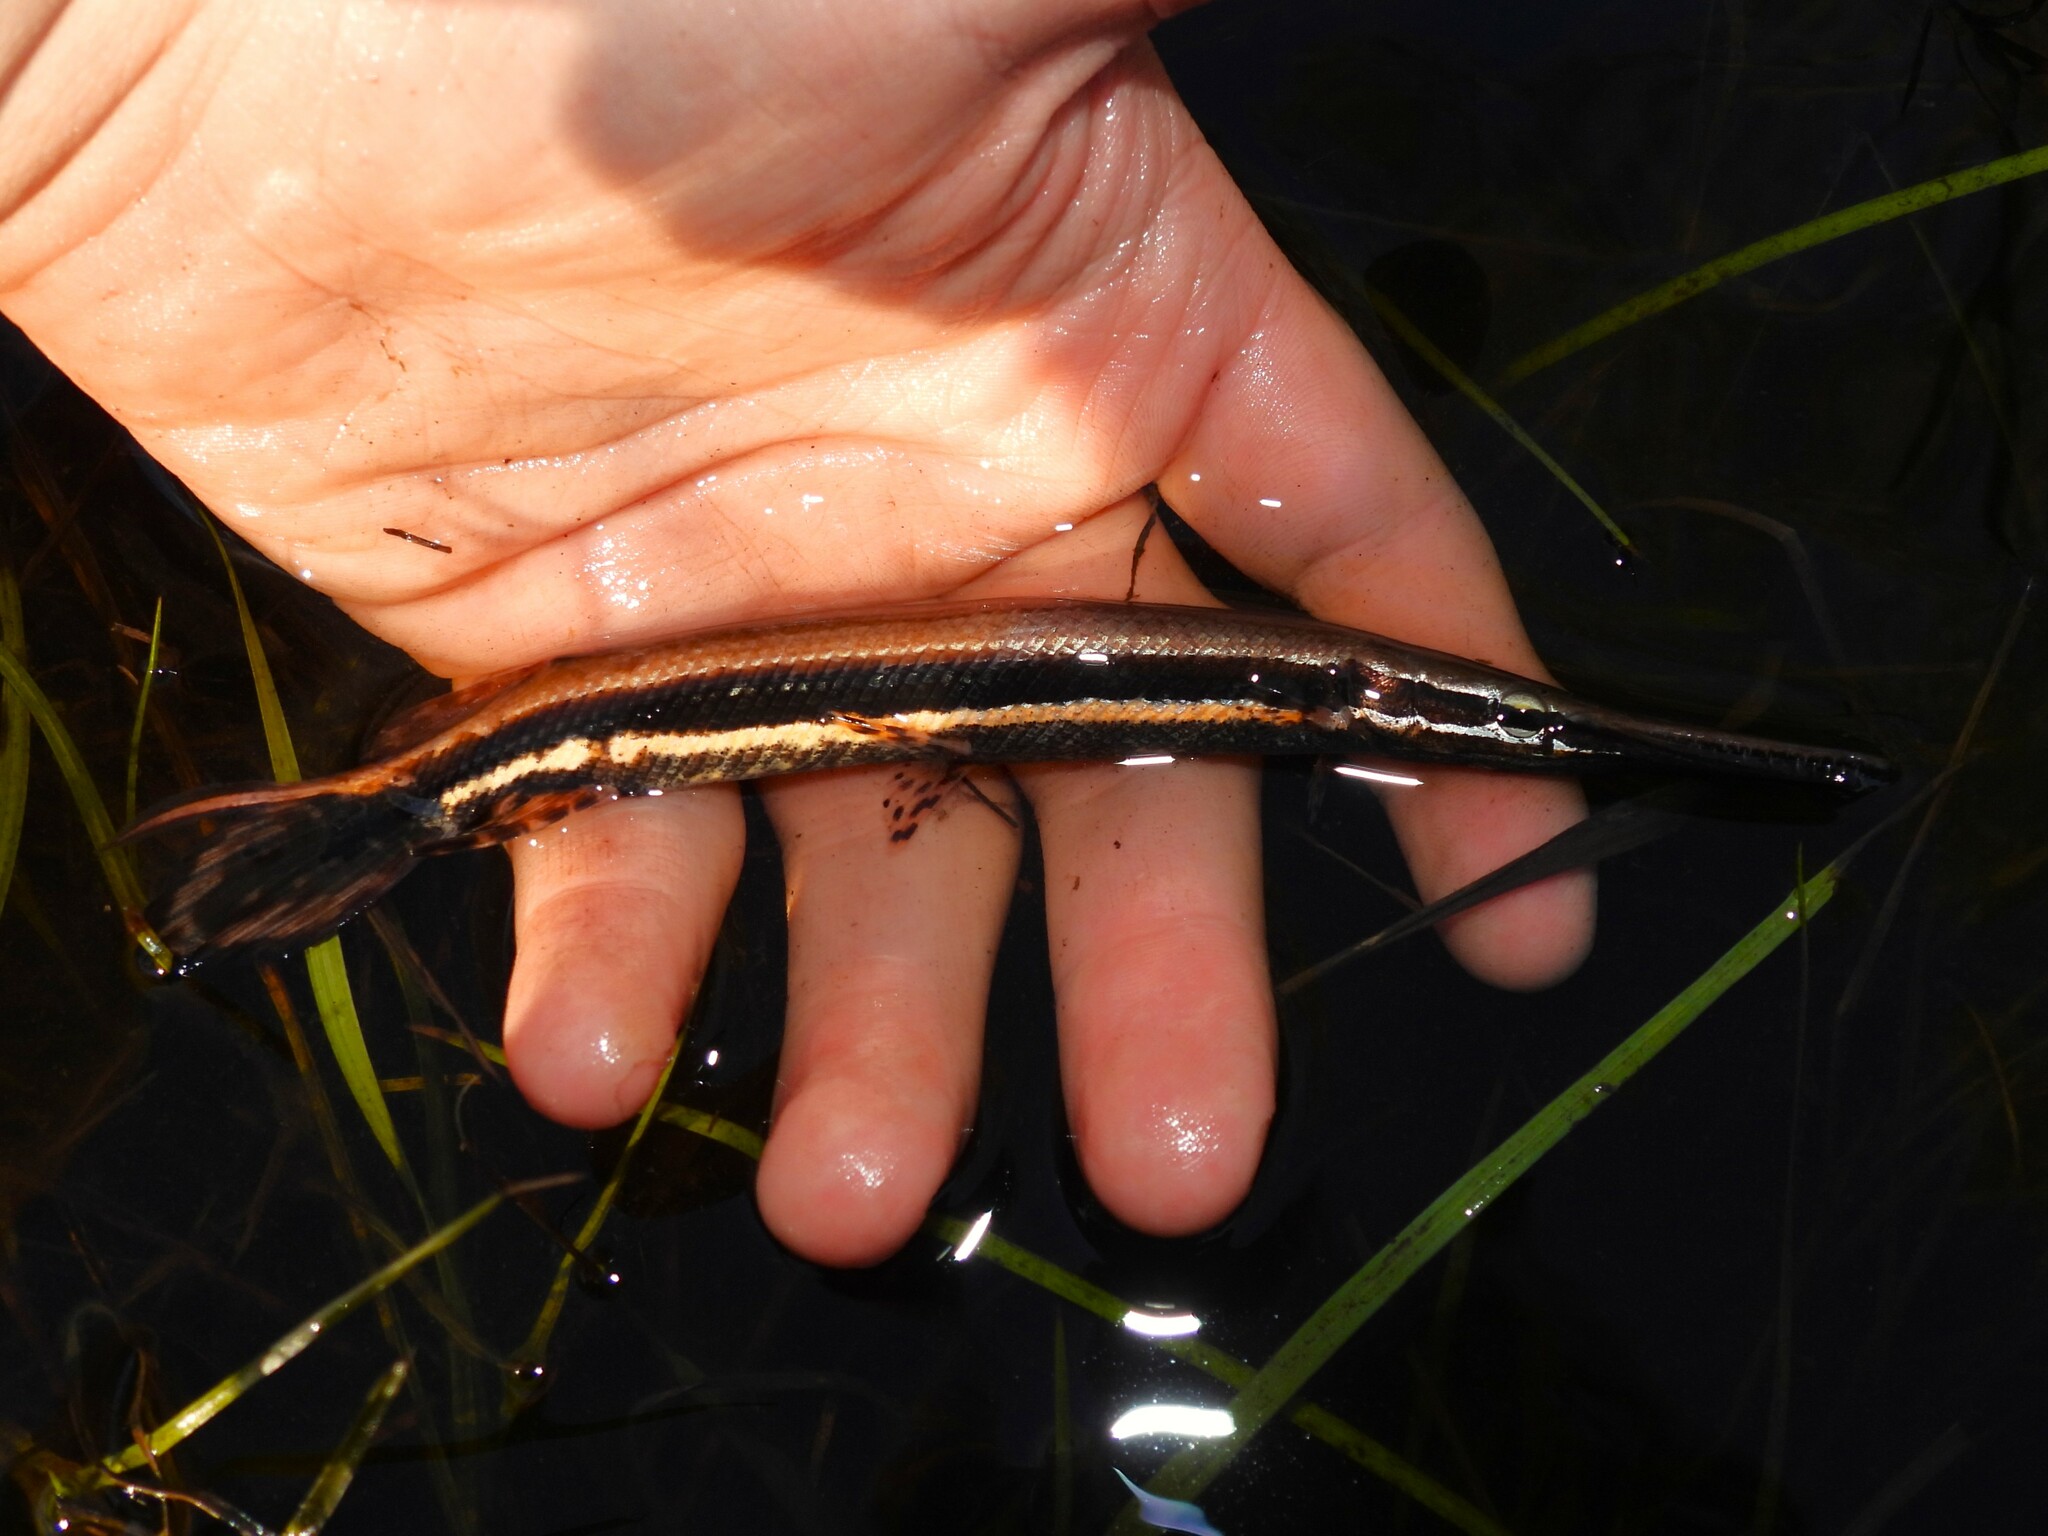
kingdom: Animalia
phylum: Chordata
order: Lepisosteiformes
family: Lepisosteidae
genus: Lepisosteus
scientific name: Lepisosteus platyrhincus
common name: Florida gar
